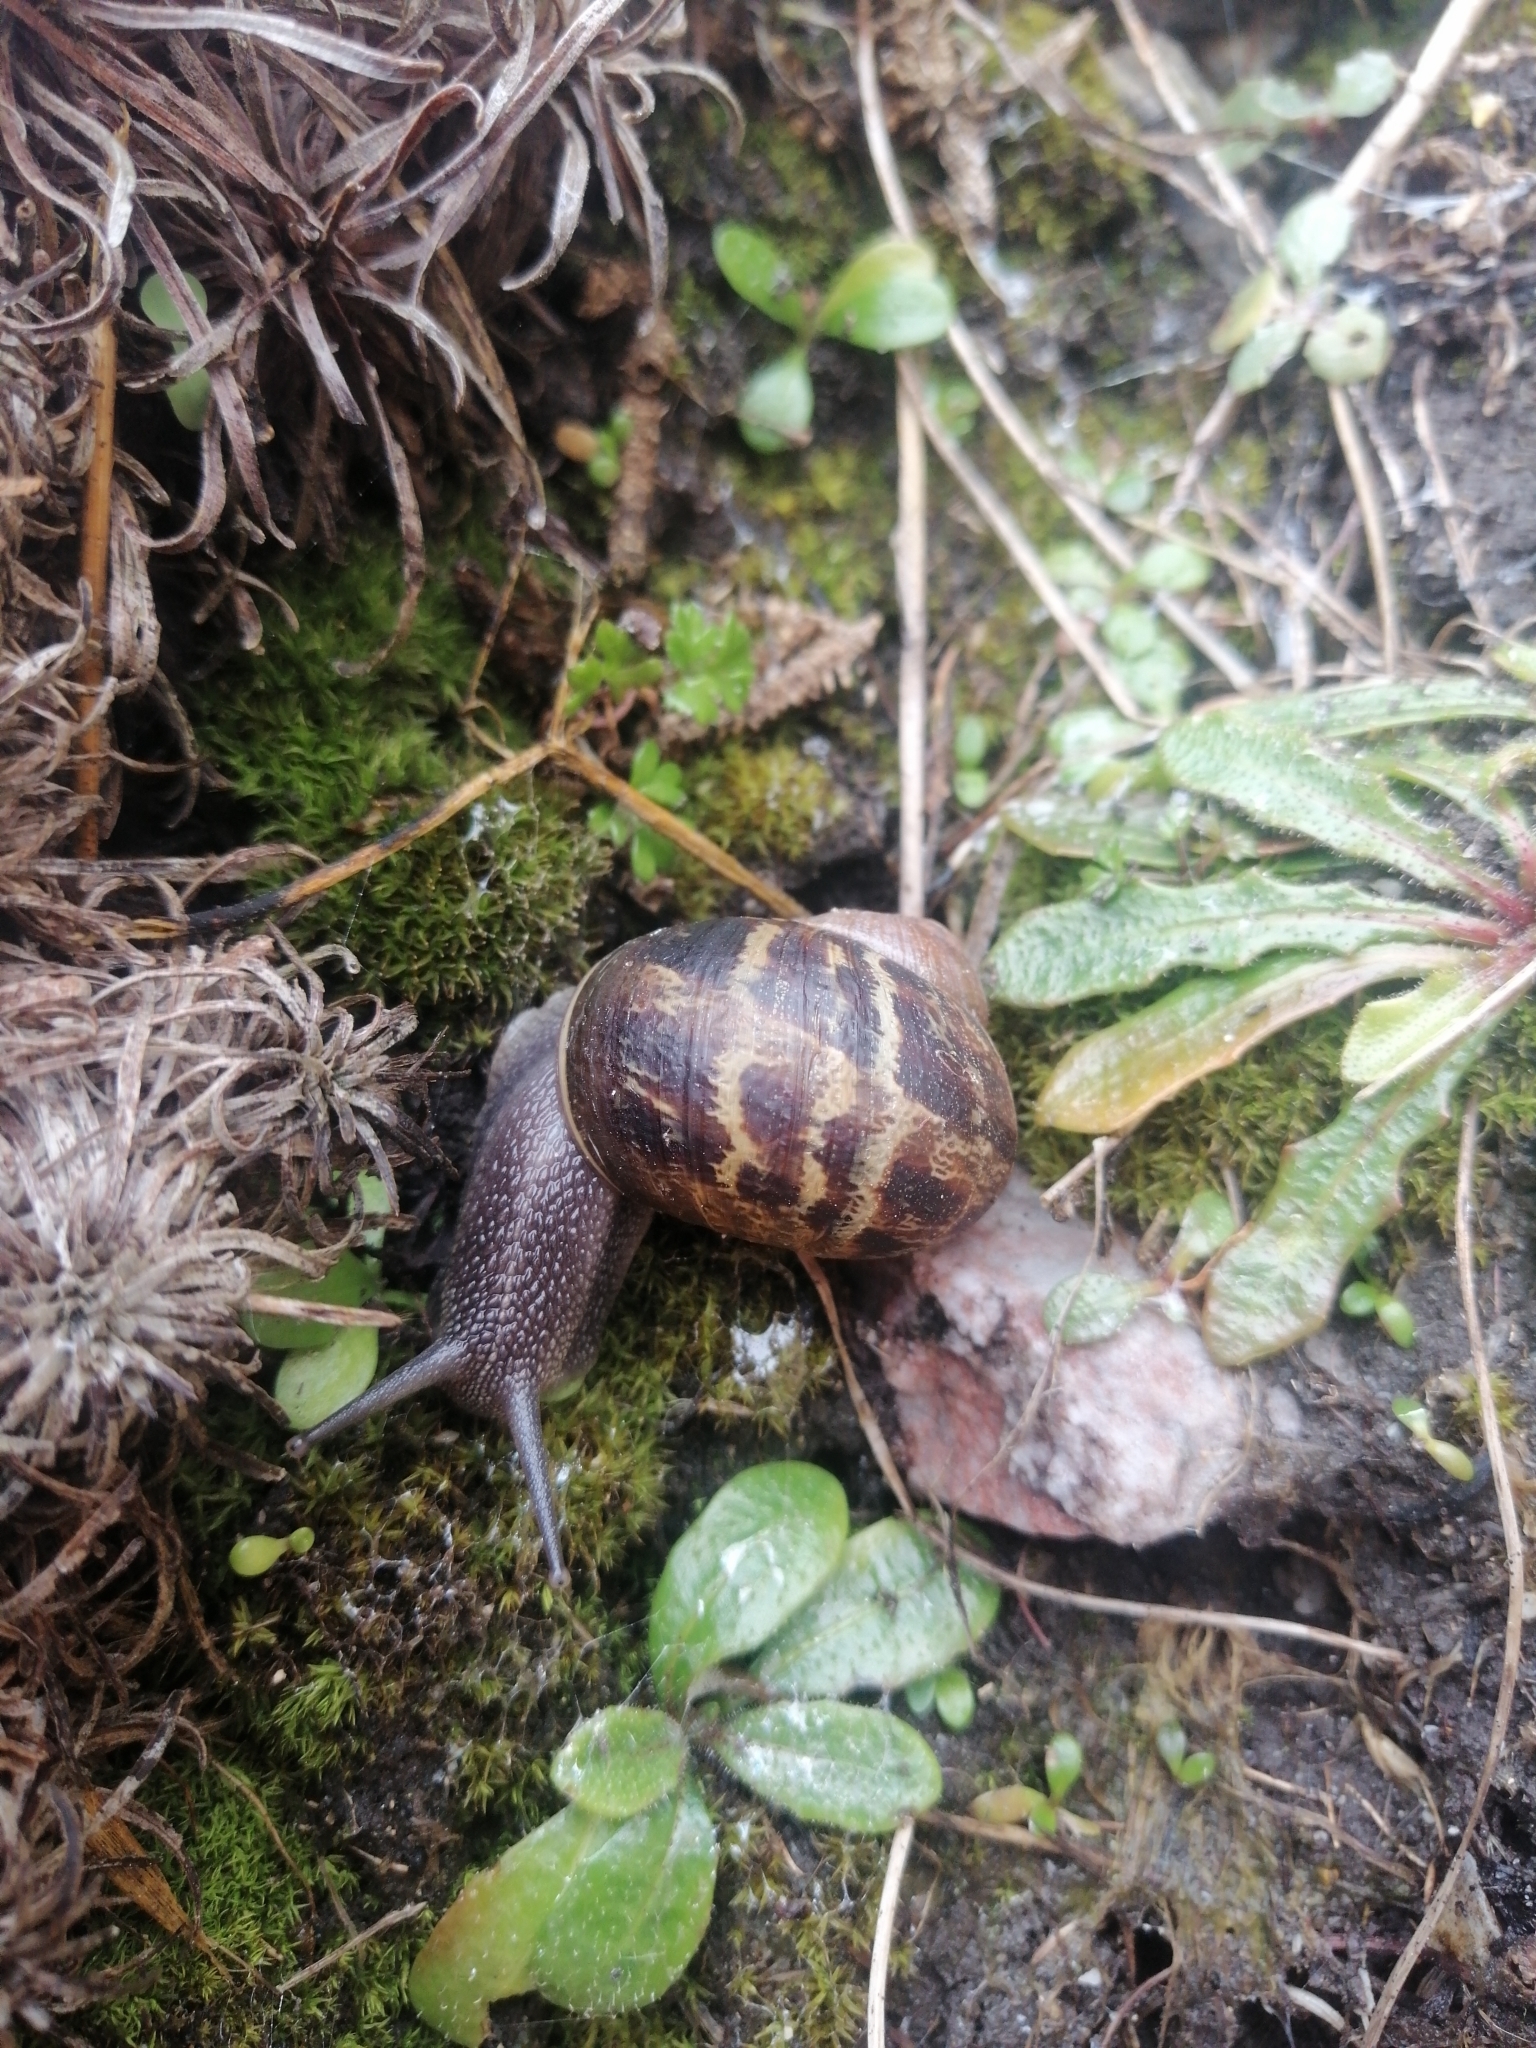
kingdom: Animalia
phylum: Mollusca
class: Gastropoda
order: Stylommatophora
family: Helicidae
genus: Cornu
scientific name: Cornu aspersum
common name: Brown garden snail
